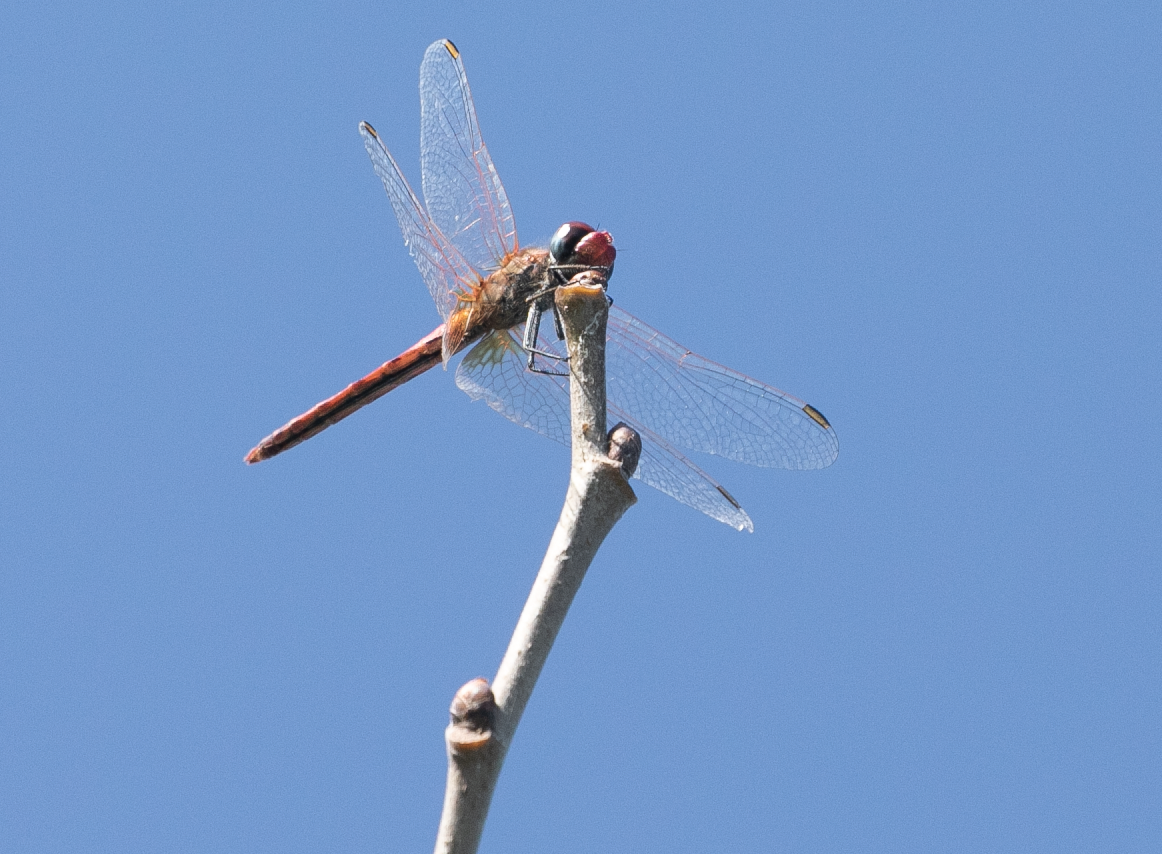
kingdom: Animalia
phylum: Arthropoda
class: Insecta
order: Odonata
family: Libellulidae
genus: Sympetrum
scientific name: Sympetrum fonscolombii
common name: Red-veined darter
